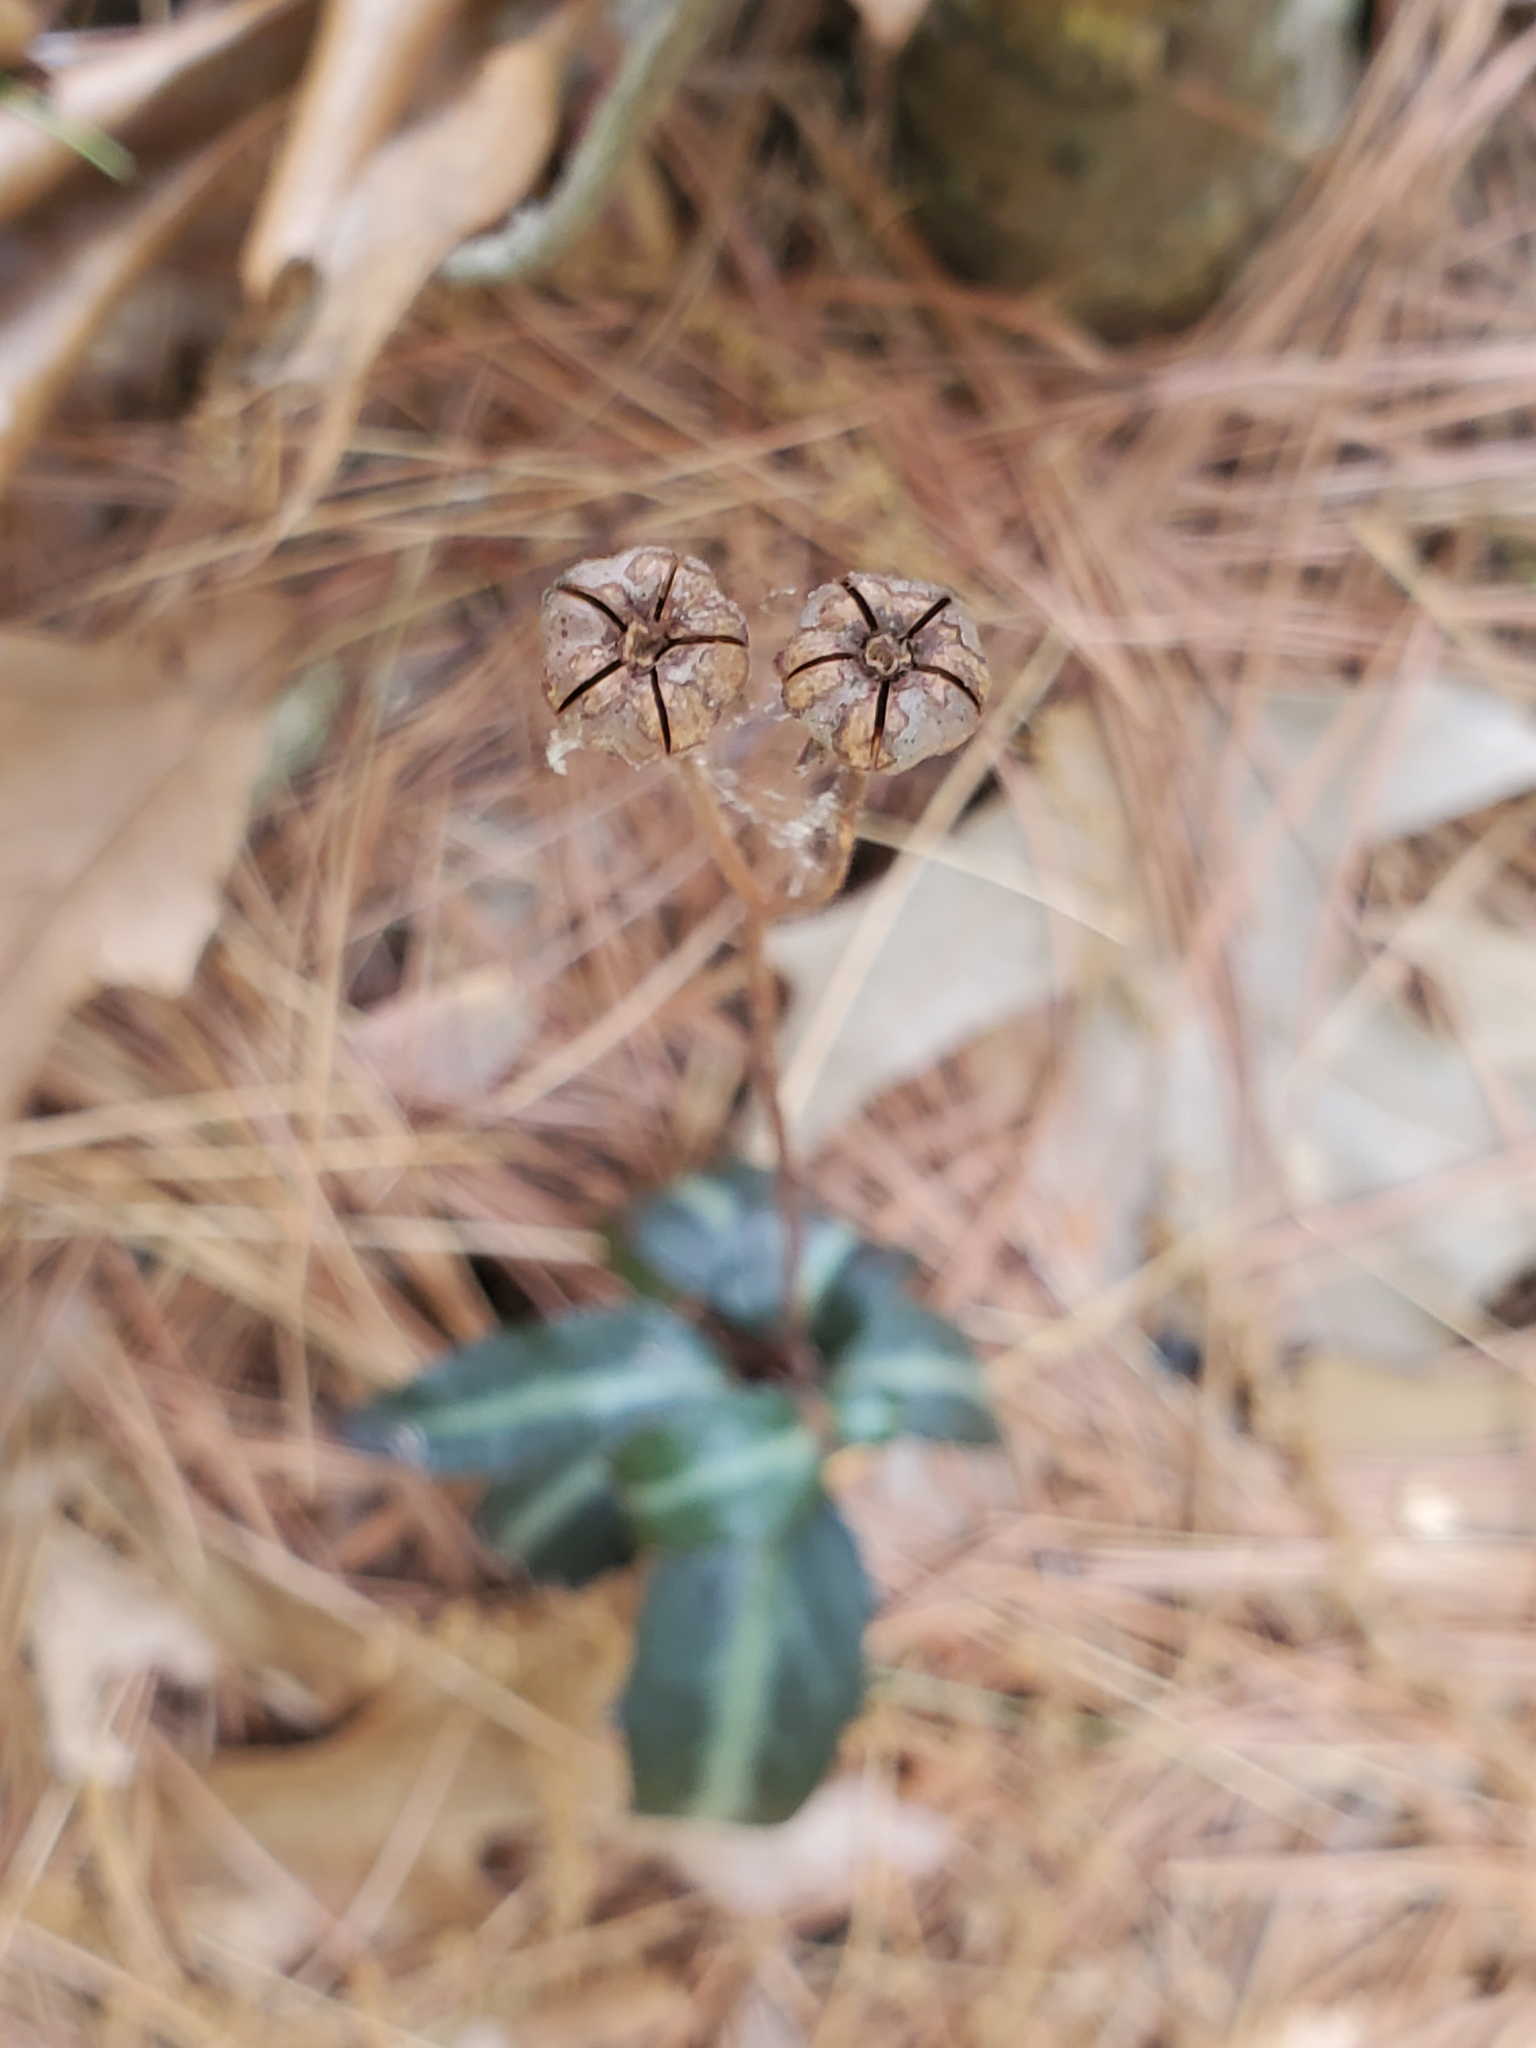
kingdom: Plantae
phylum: Tracheophyta
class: Magnoliopsida
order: Ericales
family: Ericaceae
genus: Chimaphila
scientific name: Chimaphila maculata
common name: Spotted pipsissewa
